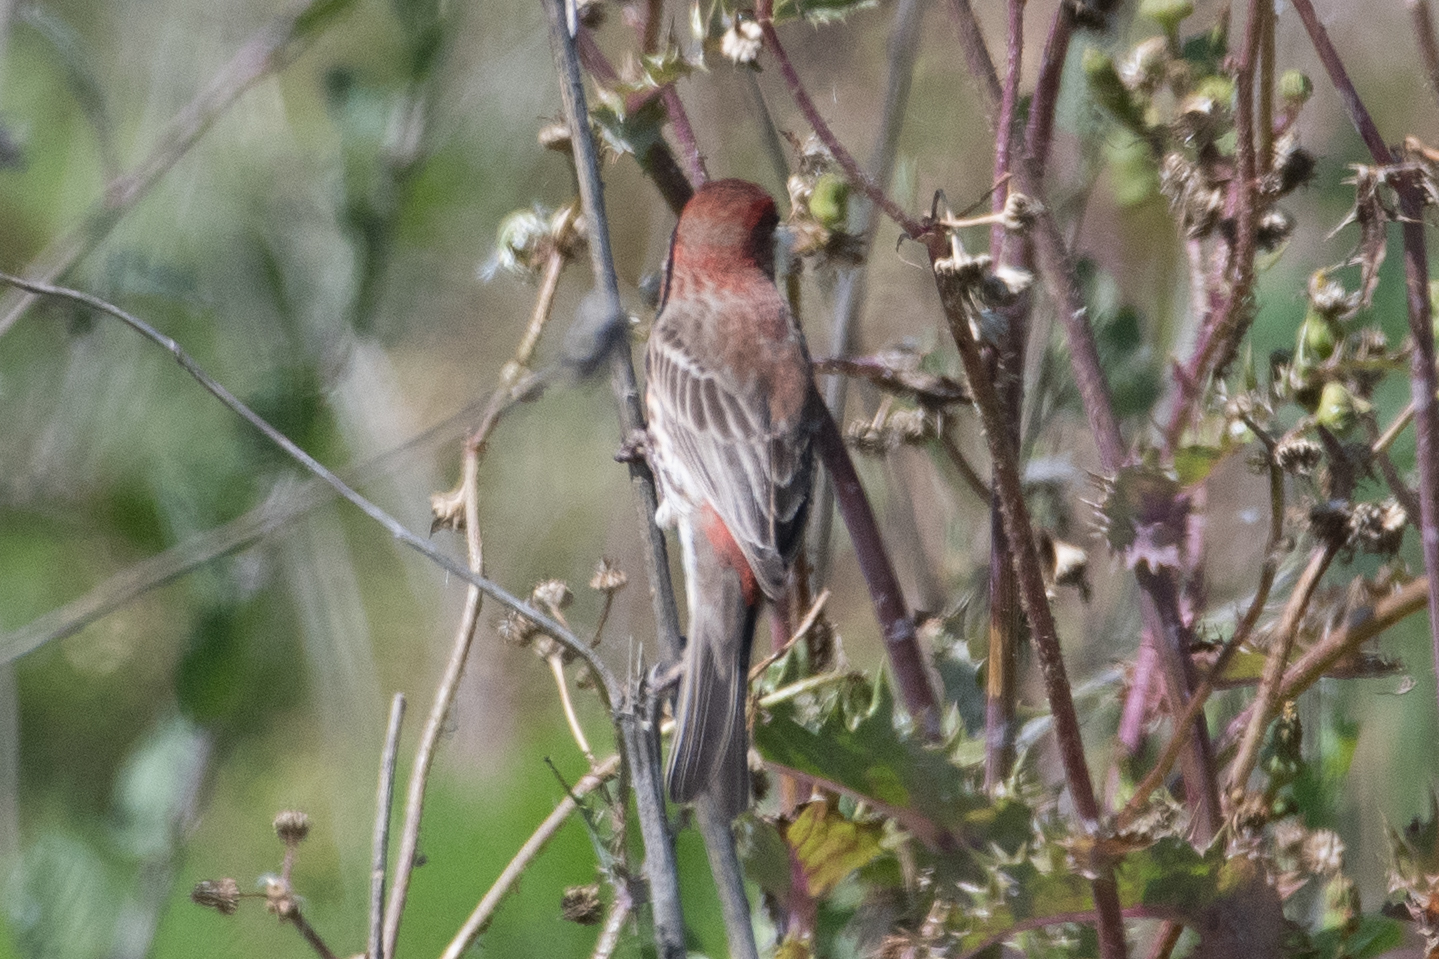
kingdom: Animalia
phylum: Chordata
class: Aves
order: Passeriformes
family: Fringillidae
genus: Haemorhous
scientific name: Haemorhous mexicanus
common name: House finch
